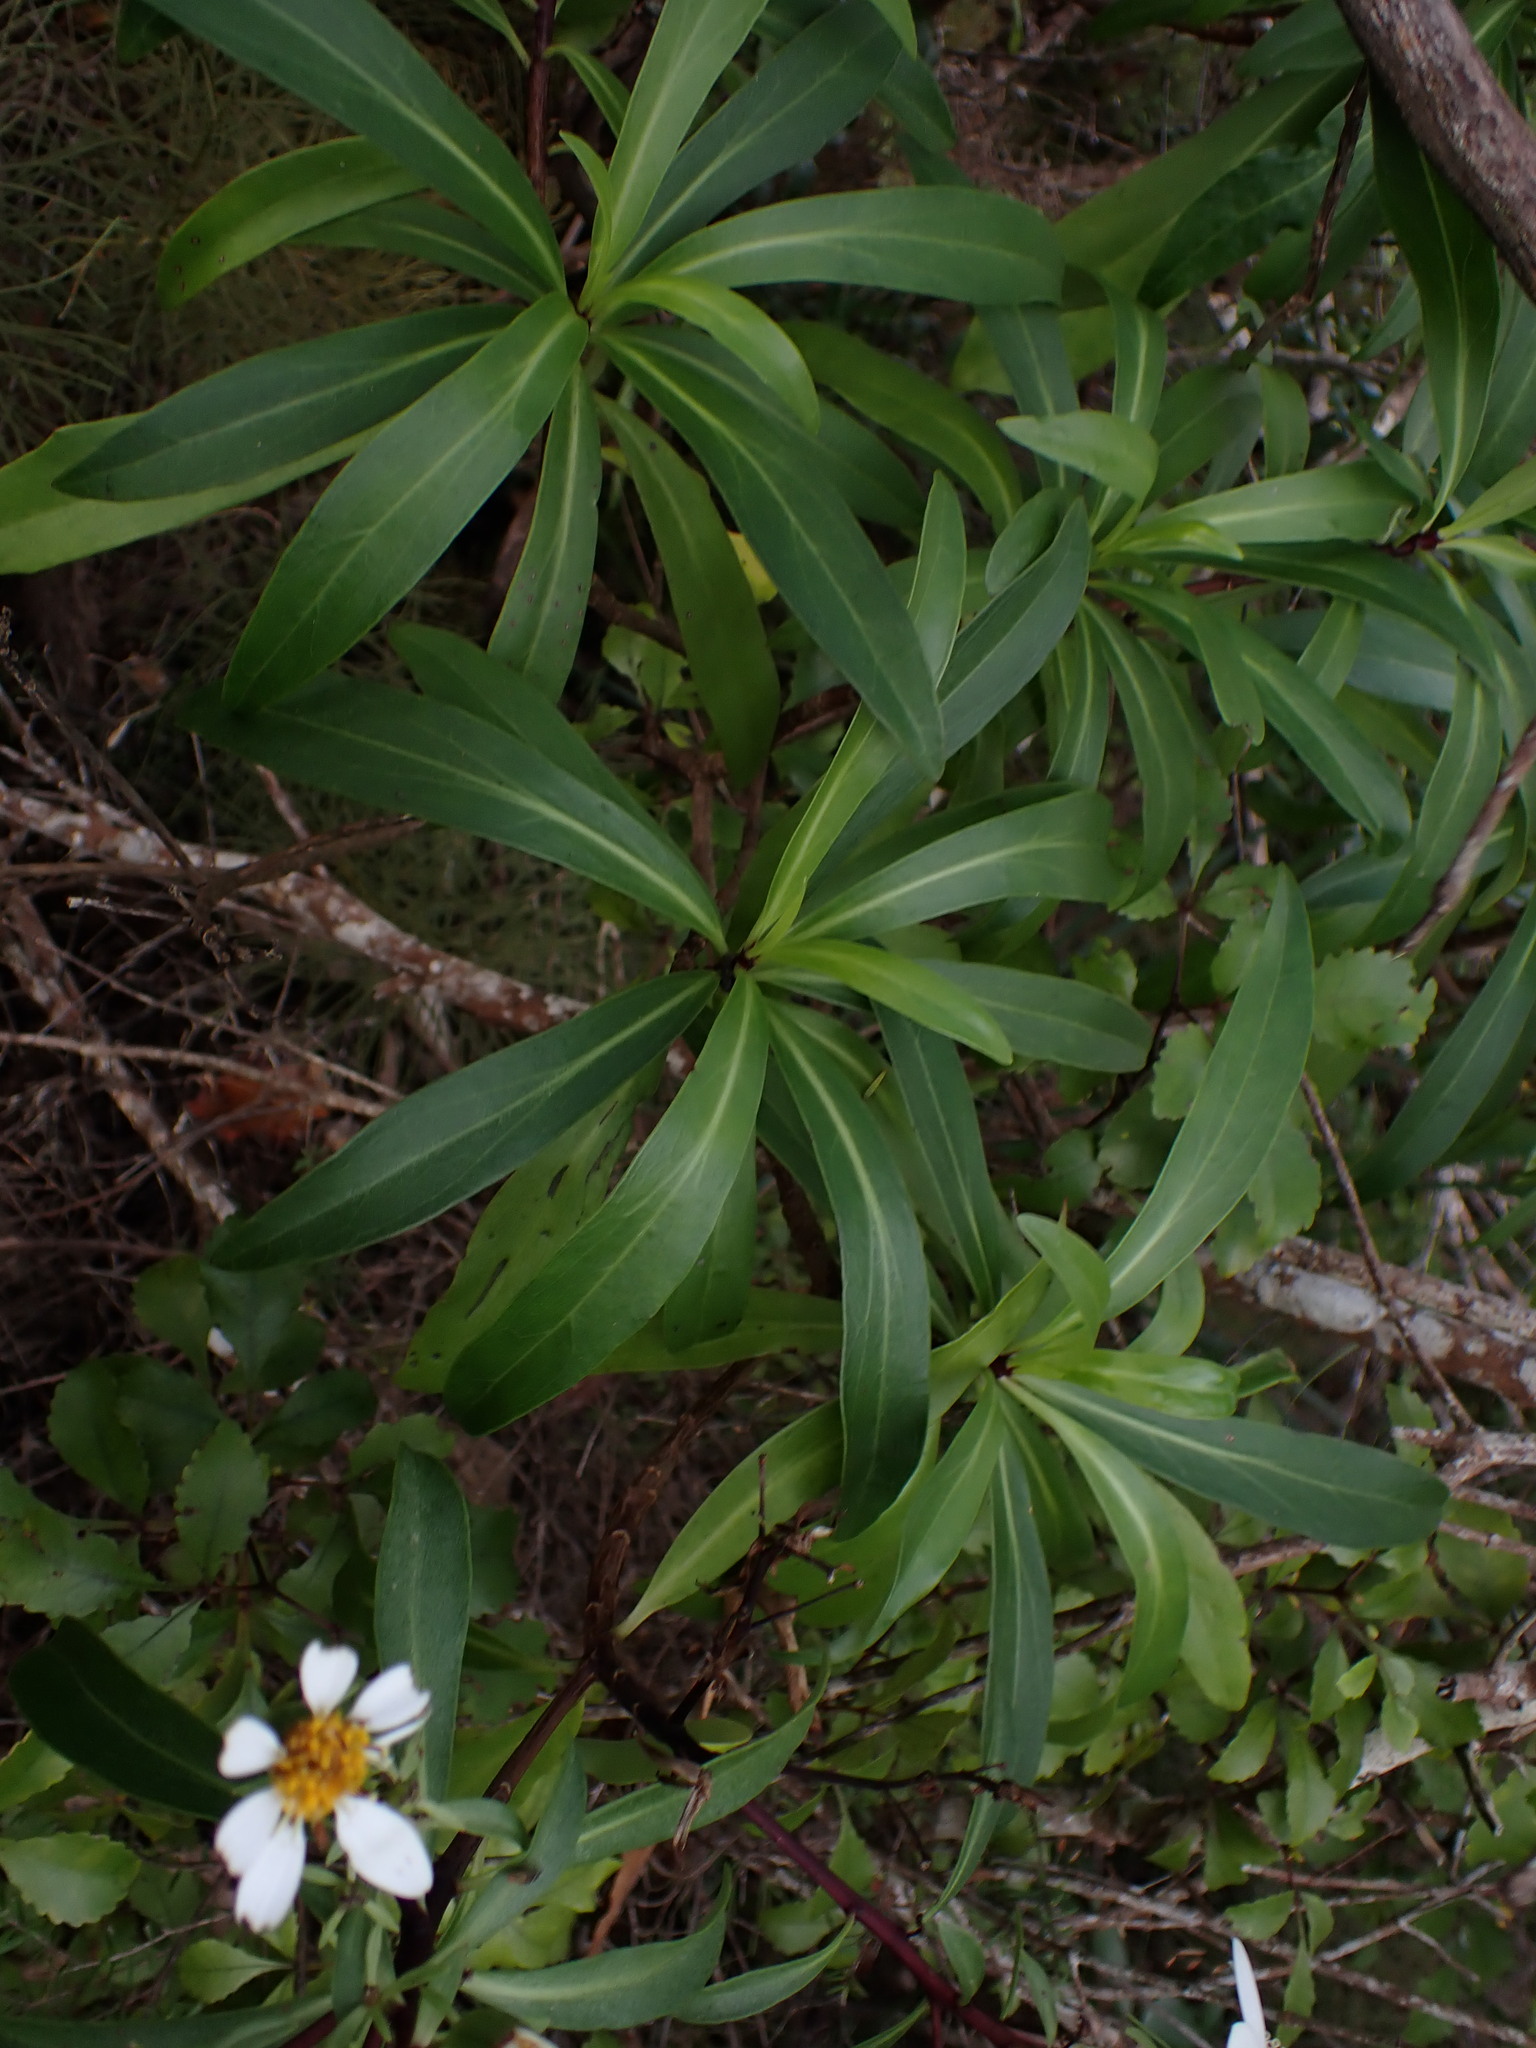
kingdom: Plantae
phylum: Tracheophyta
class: Magnoliopsida
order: Asterales
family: Asteraceae
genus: Brachyglottis
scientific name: Brachyglottis kirkii
